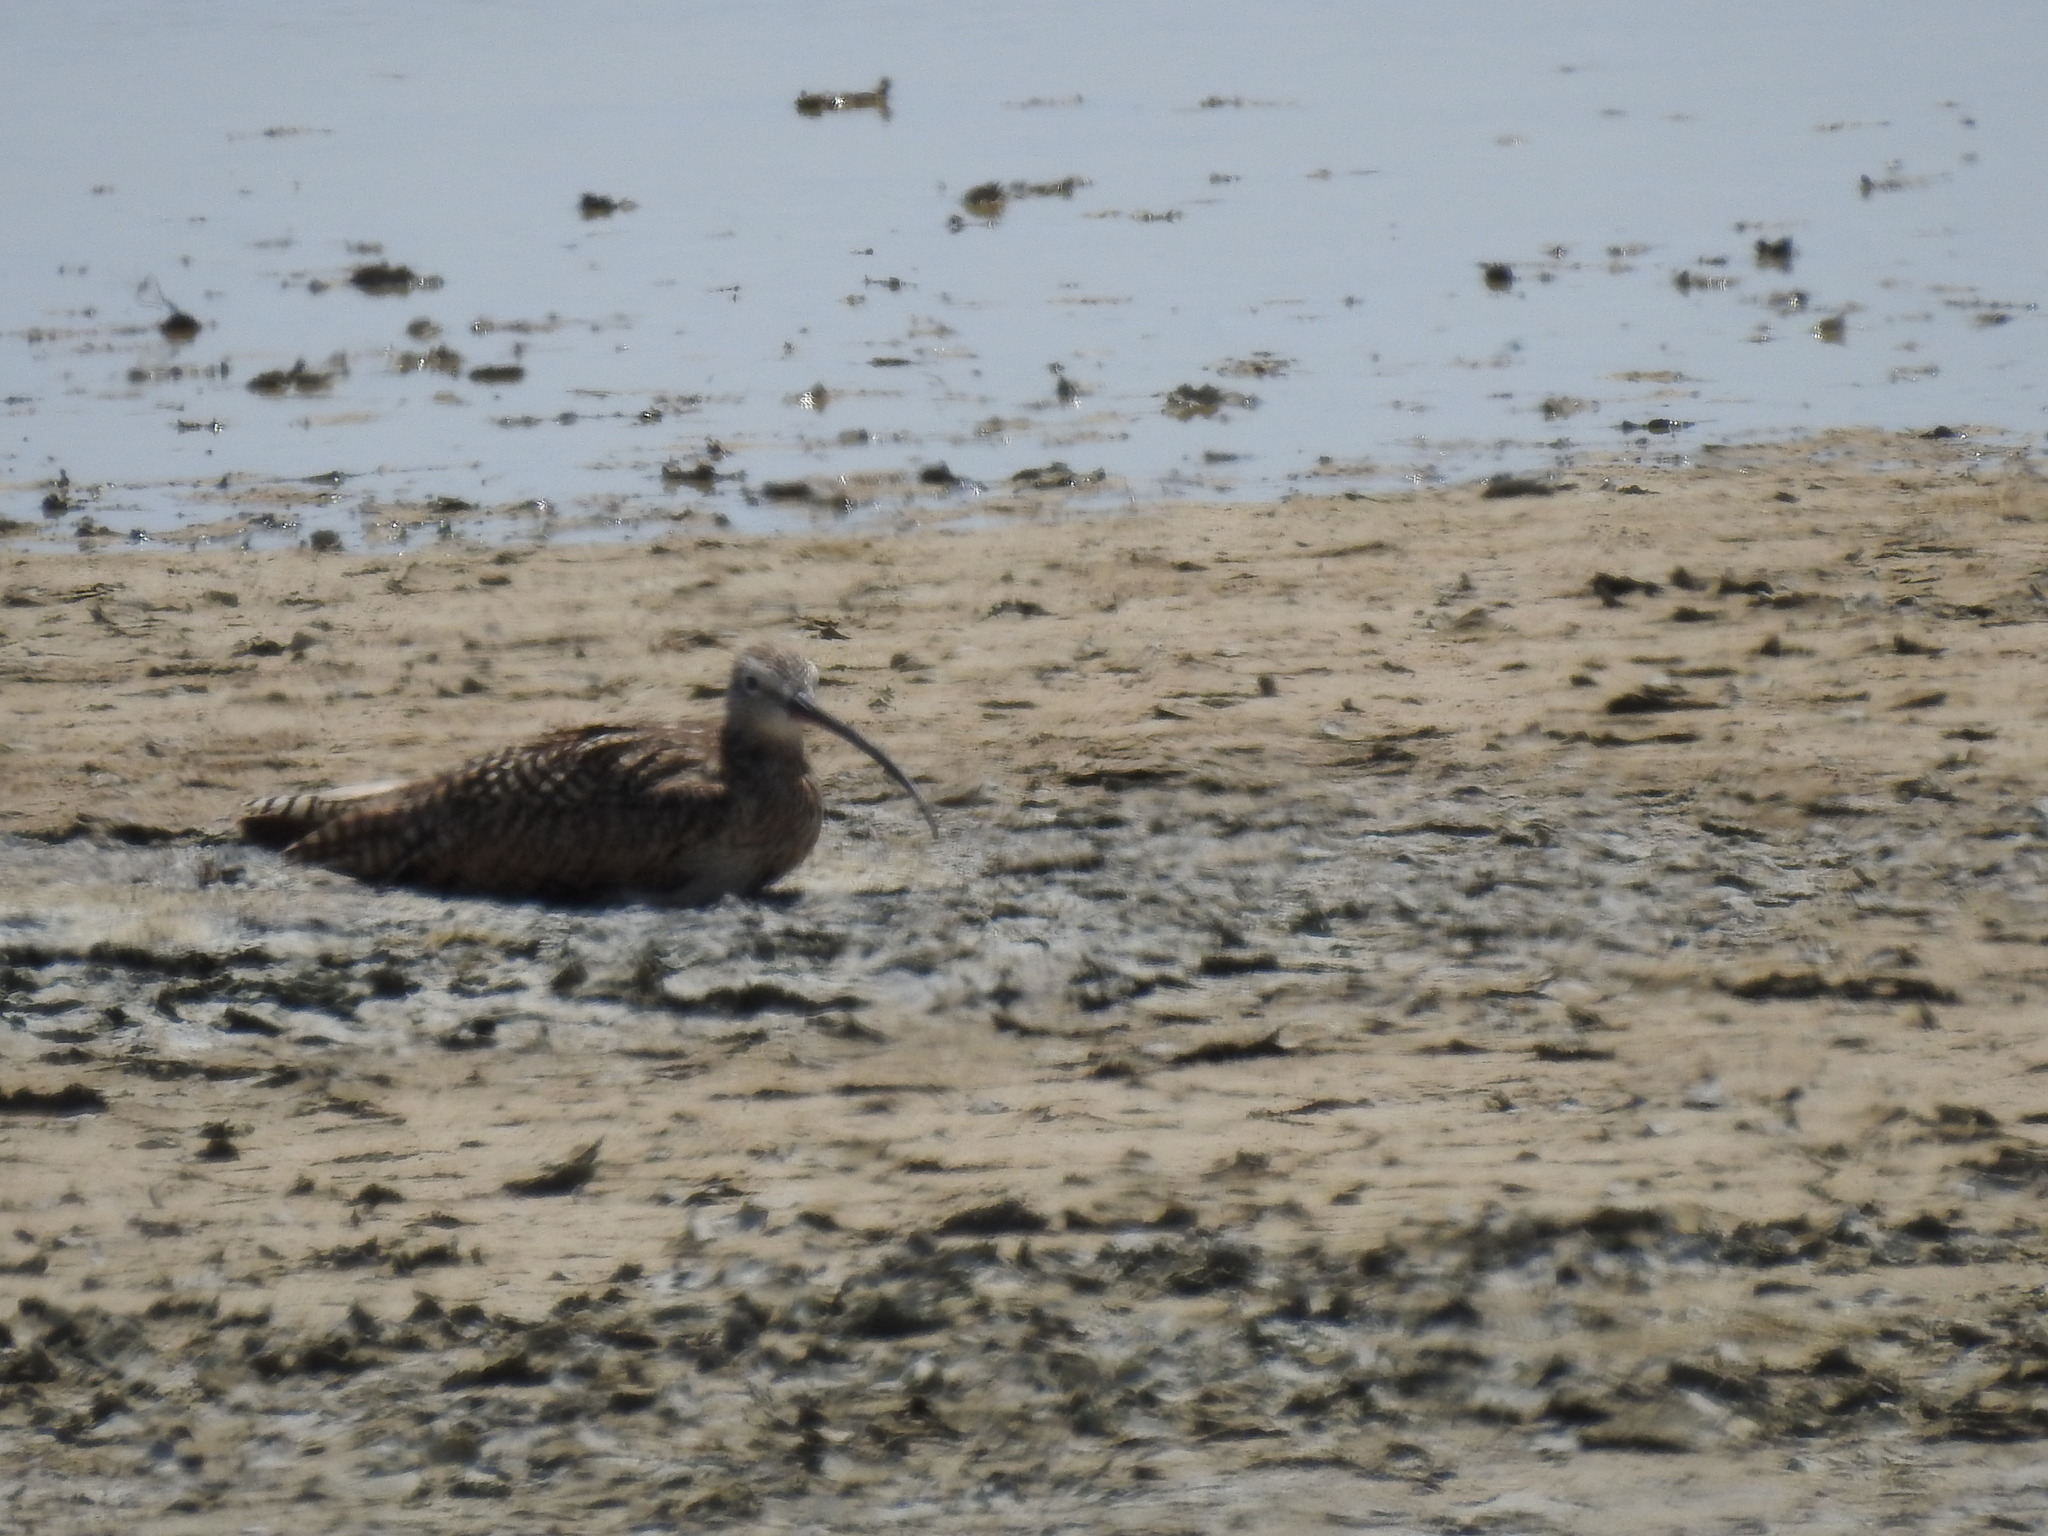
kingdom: Animalia
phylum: Chordata
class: Aves
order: Charadriiformes
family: Scolopacidae
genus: Numenius
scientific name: Numenius americanus
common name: Long-billed curlew
